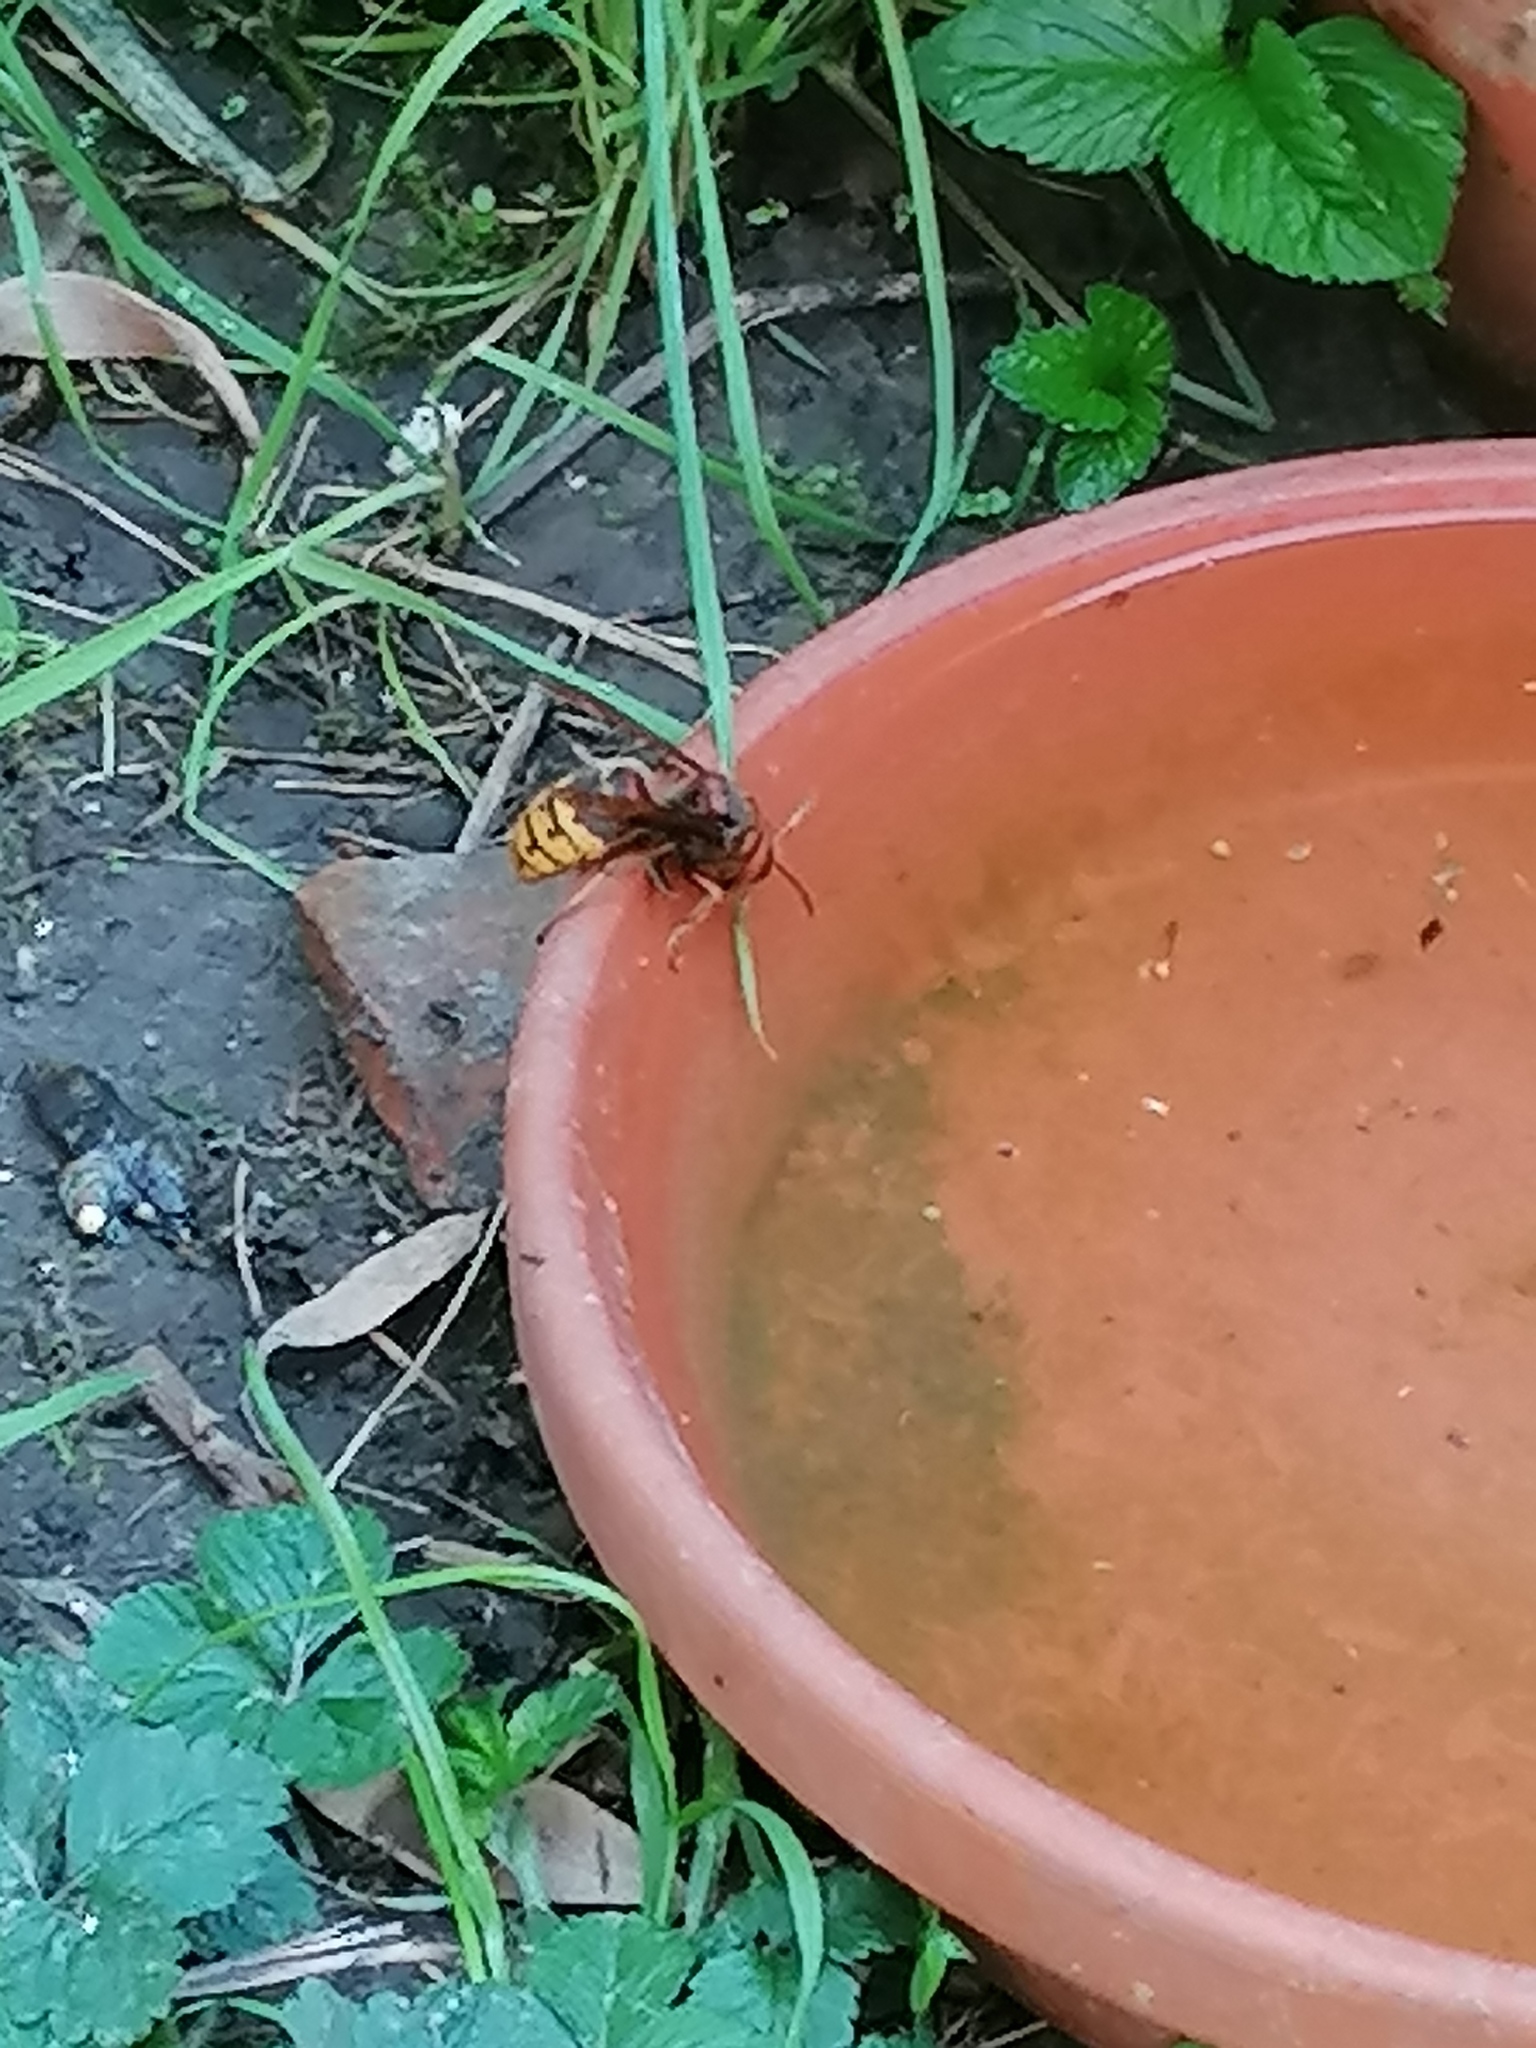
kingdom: Animalia
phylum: Arthropoda
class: Insecta
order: Hymenoptera
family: Vespidae
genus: Vespa
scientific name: Vespa crabro
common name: Hornet
